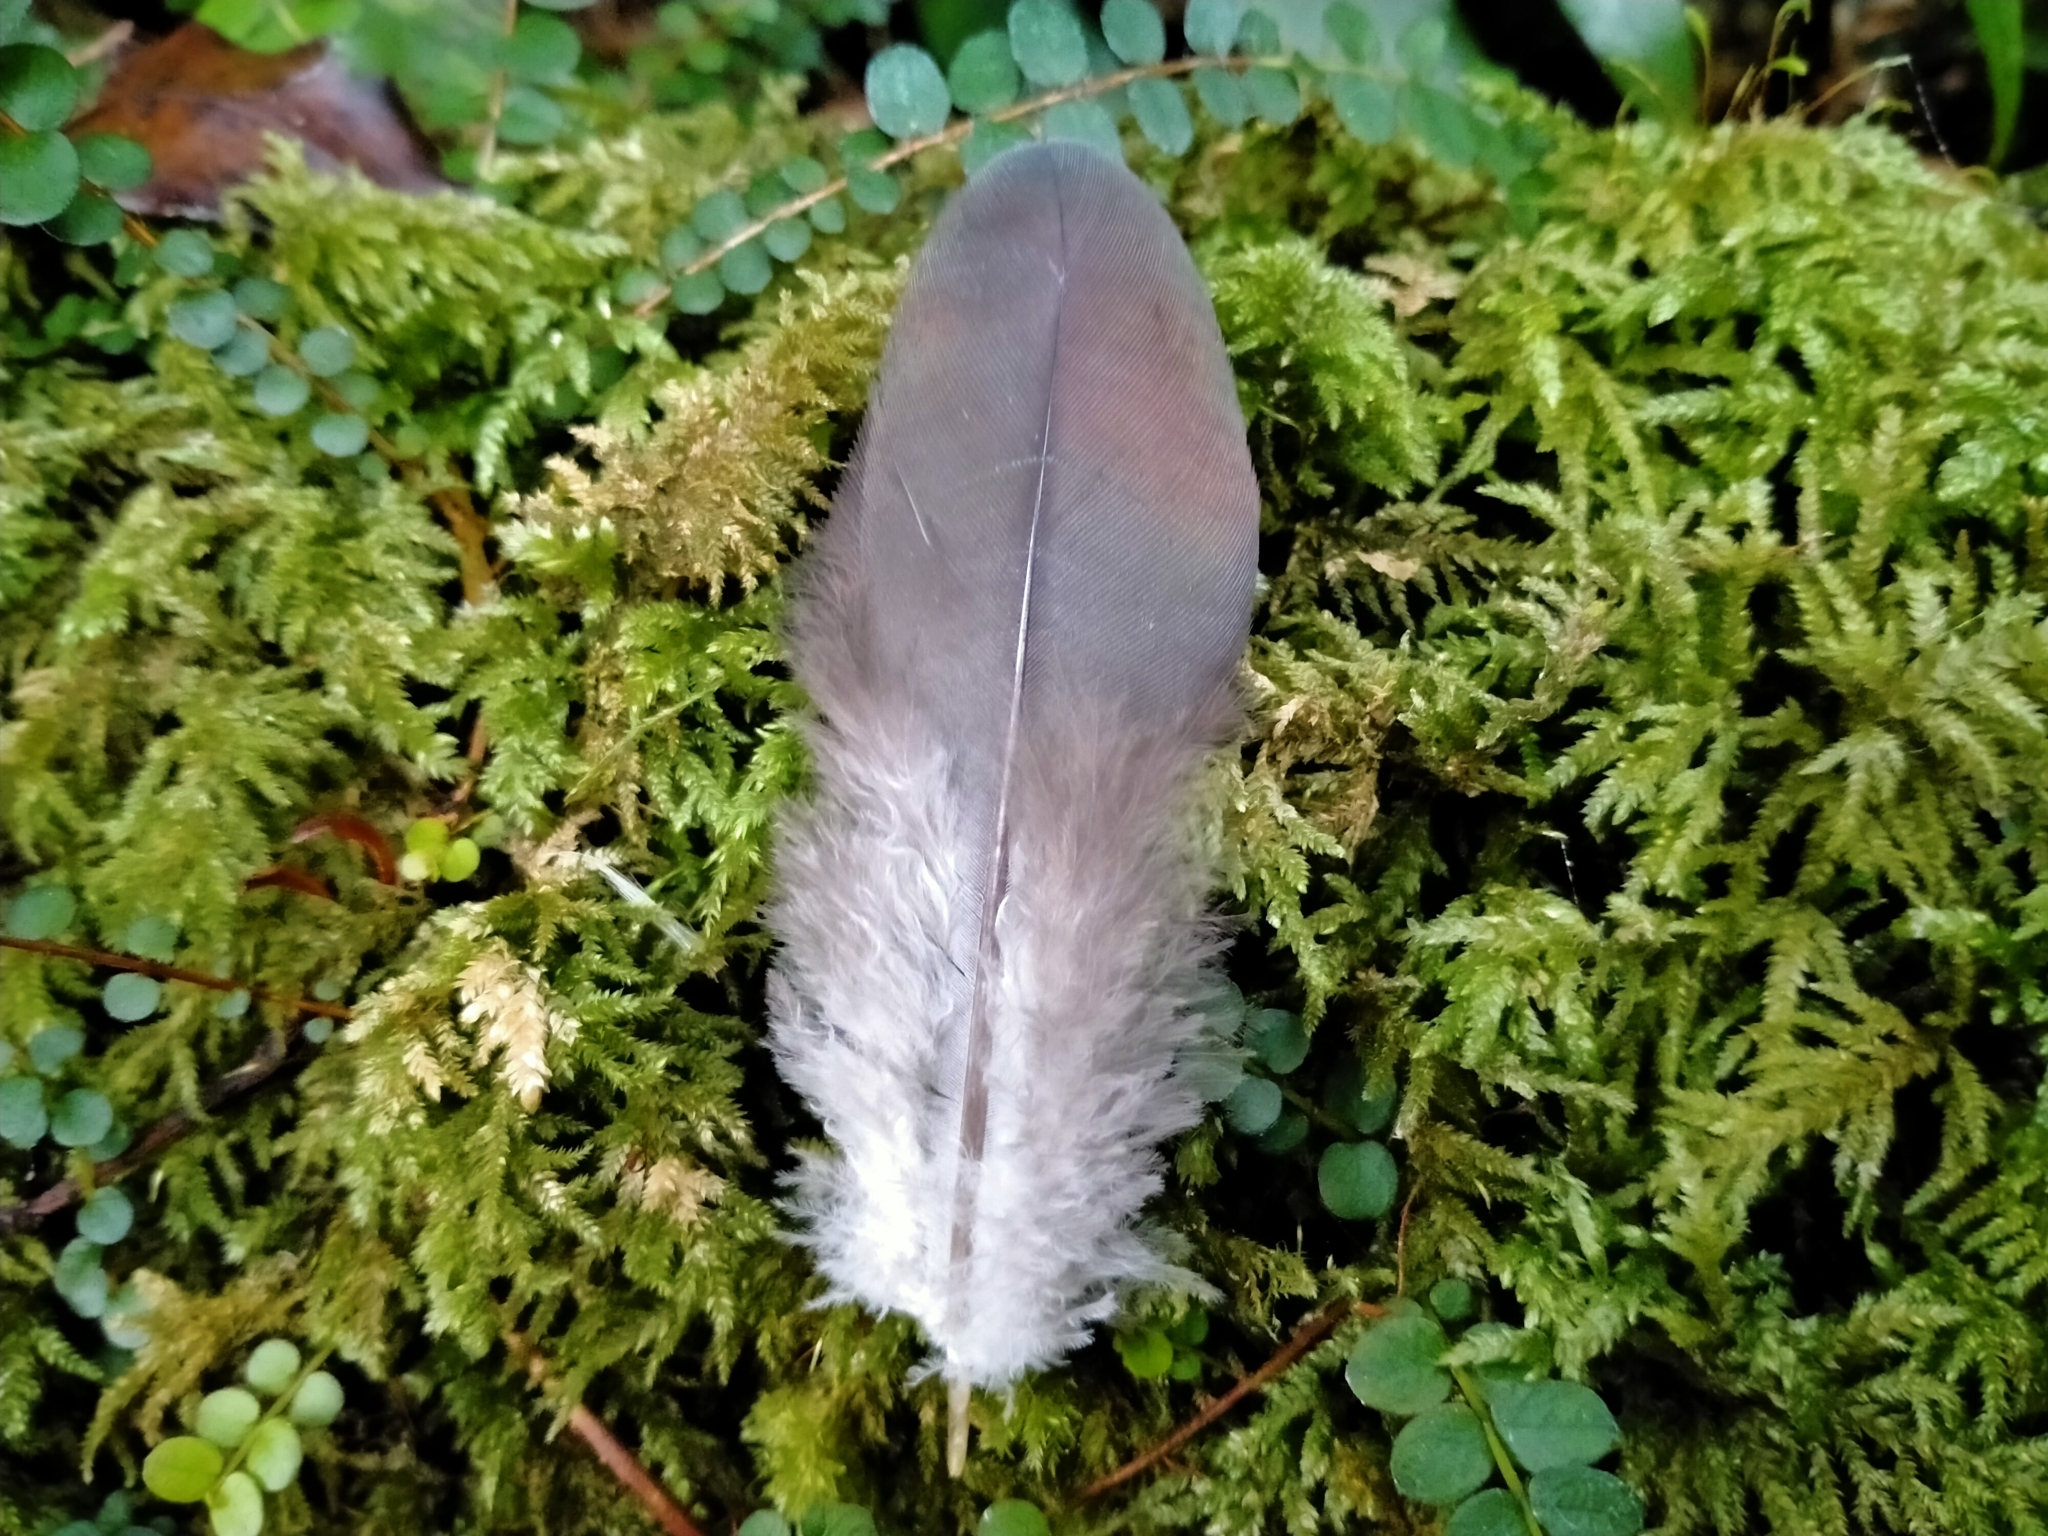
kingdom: Animalia
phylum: Chordata
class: Aves
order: Columbiformes
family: Columbidae
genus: Hemiphaga
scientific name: Hemiphaga novaeseelandiae
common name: New zealand pigeon
